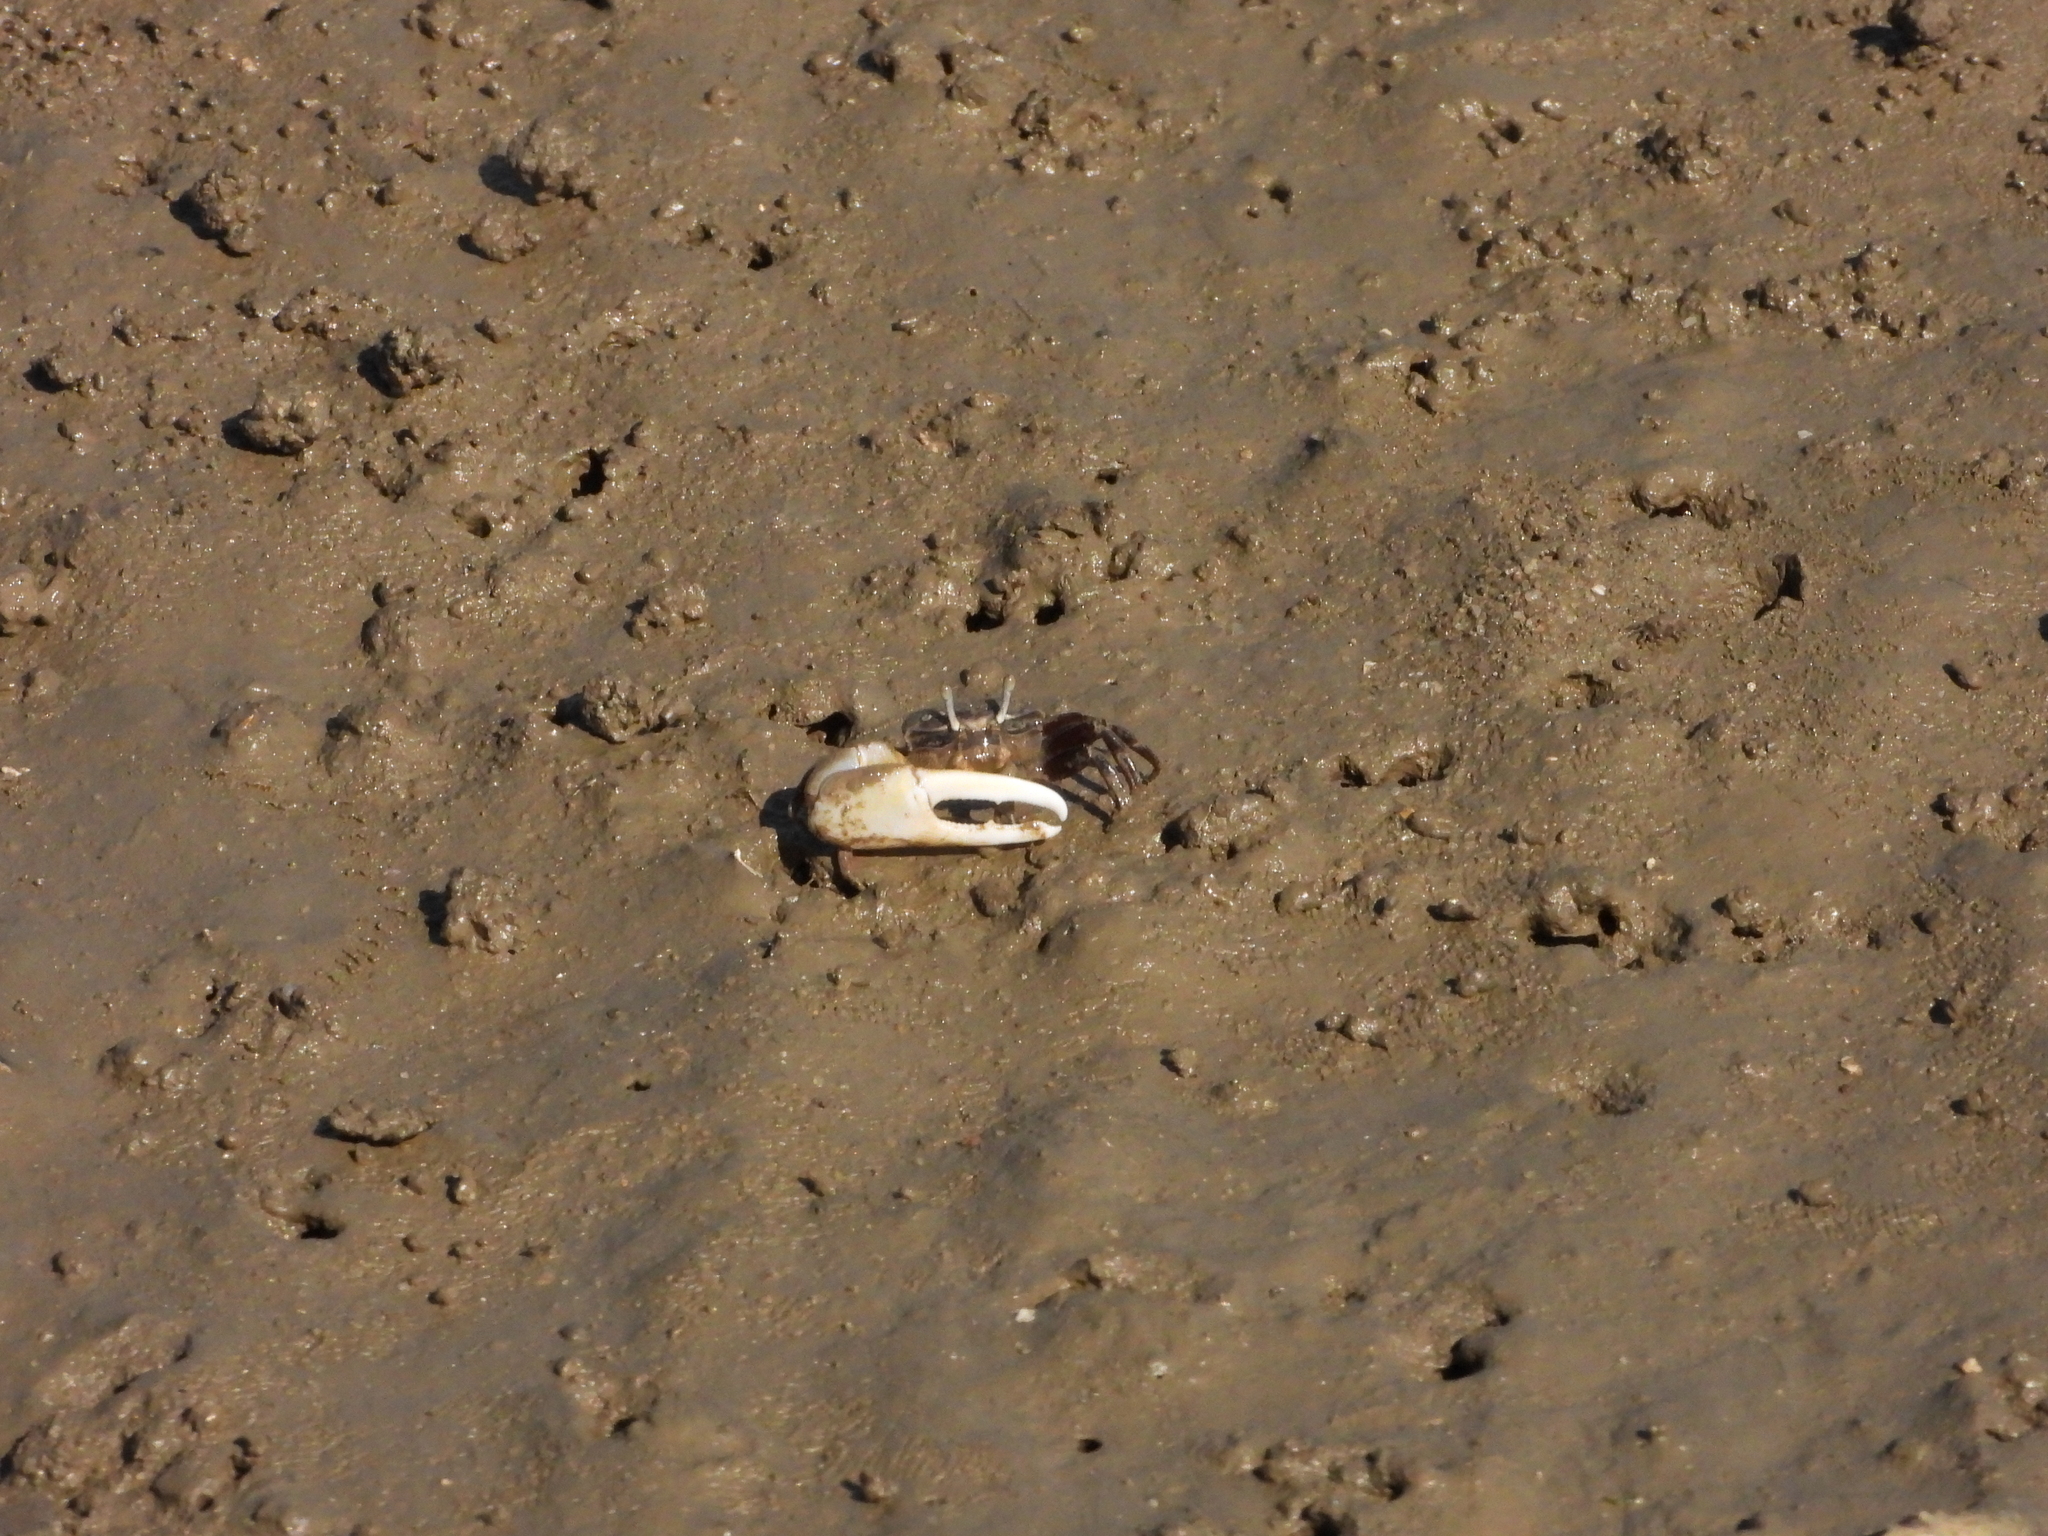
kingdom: Animalia
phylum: Arthropoda
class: Malacostraca
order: Decapoda
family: Ocypodidae
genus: Austruca
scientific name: Austruca lactea
